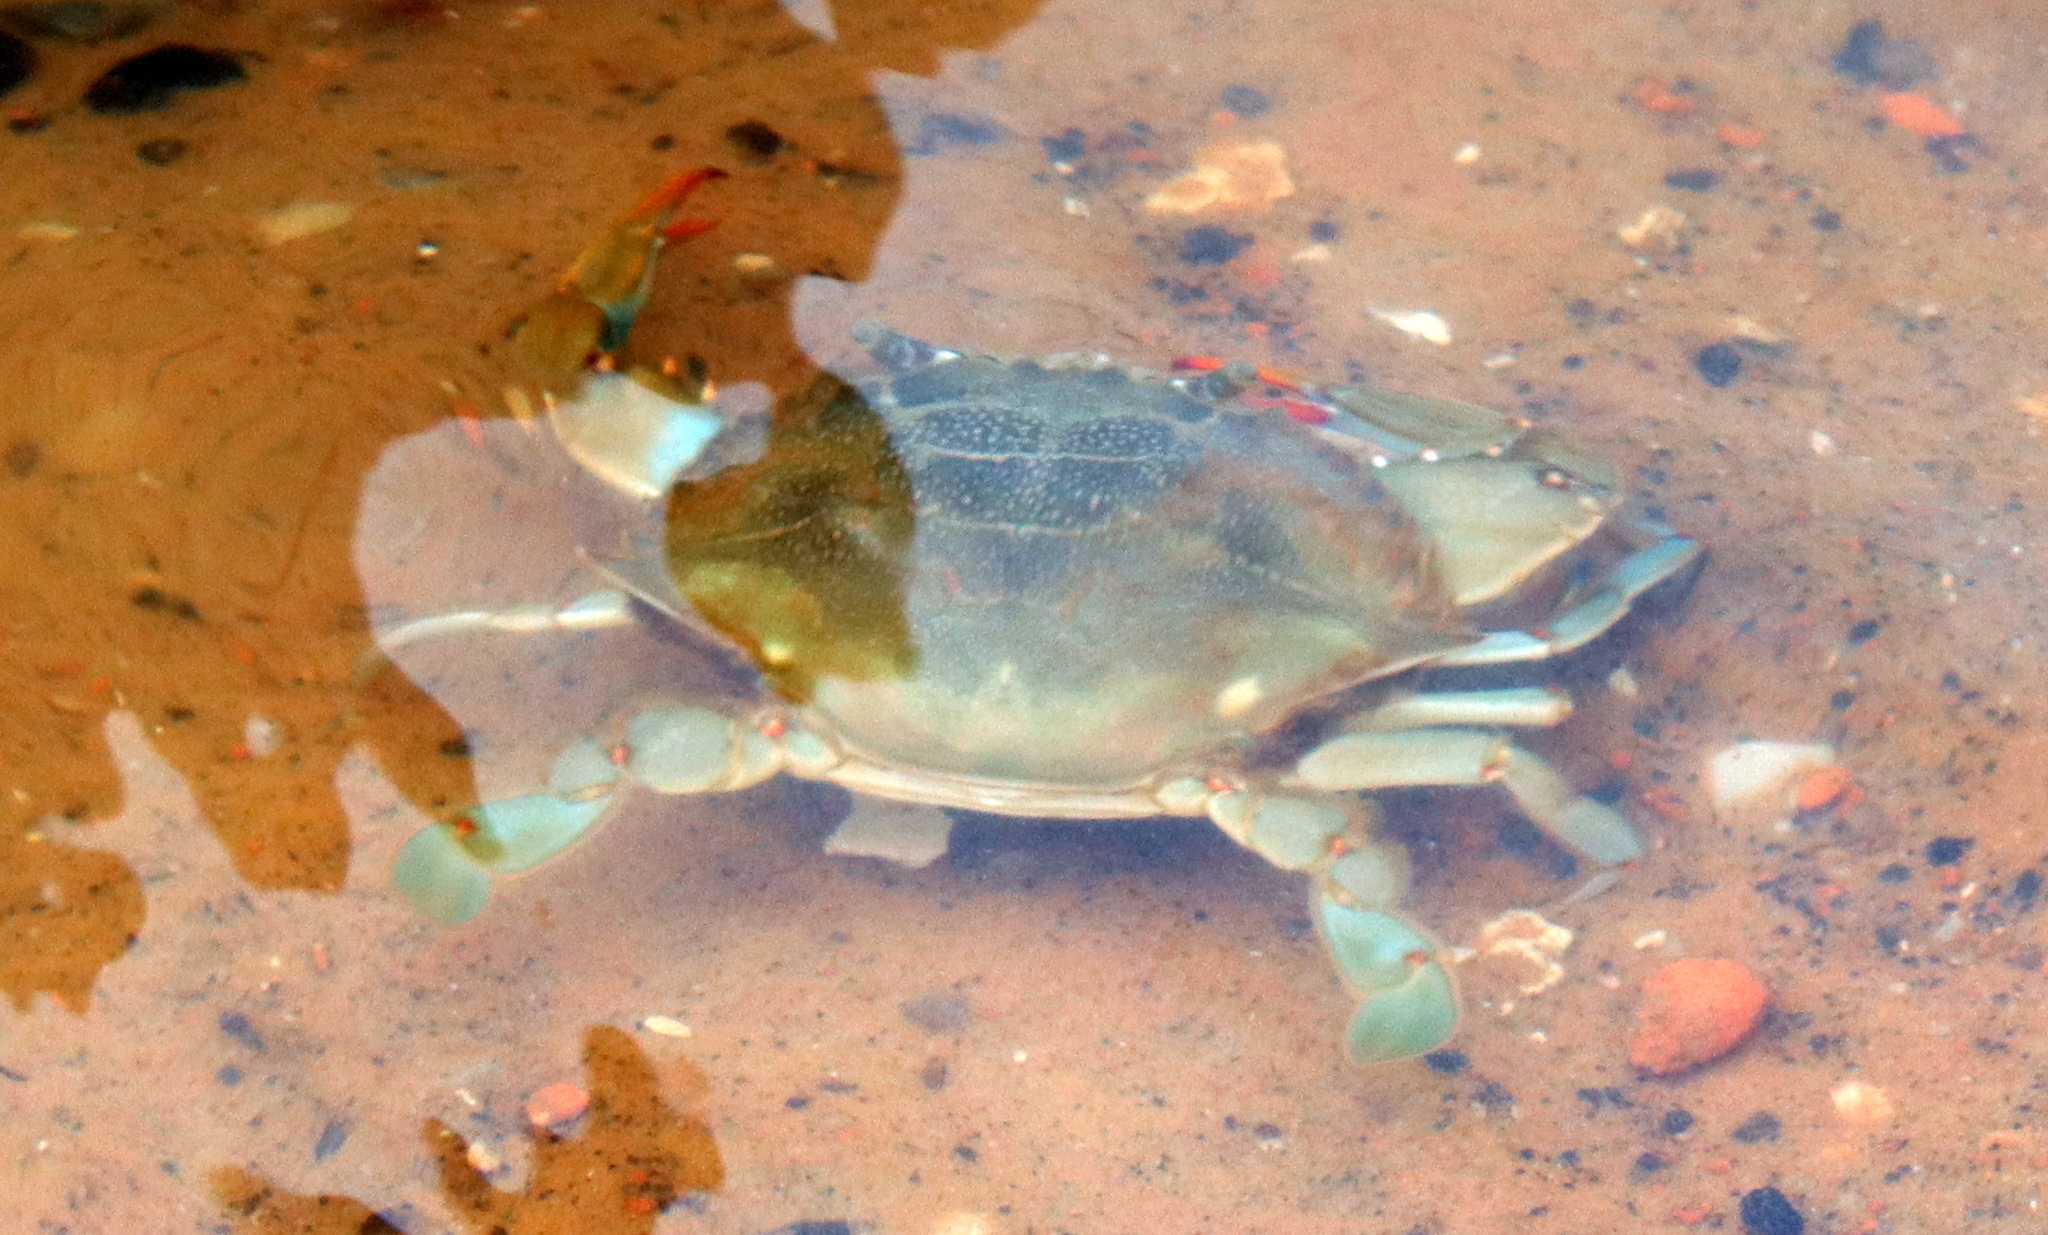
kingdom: Animalia
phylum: Arthropoda
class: Malacostraca
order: Decapoda
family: Portunidae
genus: Callinectes
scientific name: Callinectes sapidus
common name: Blue crab
